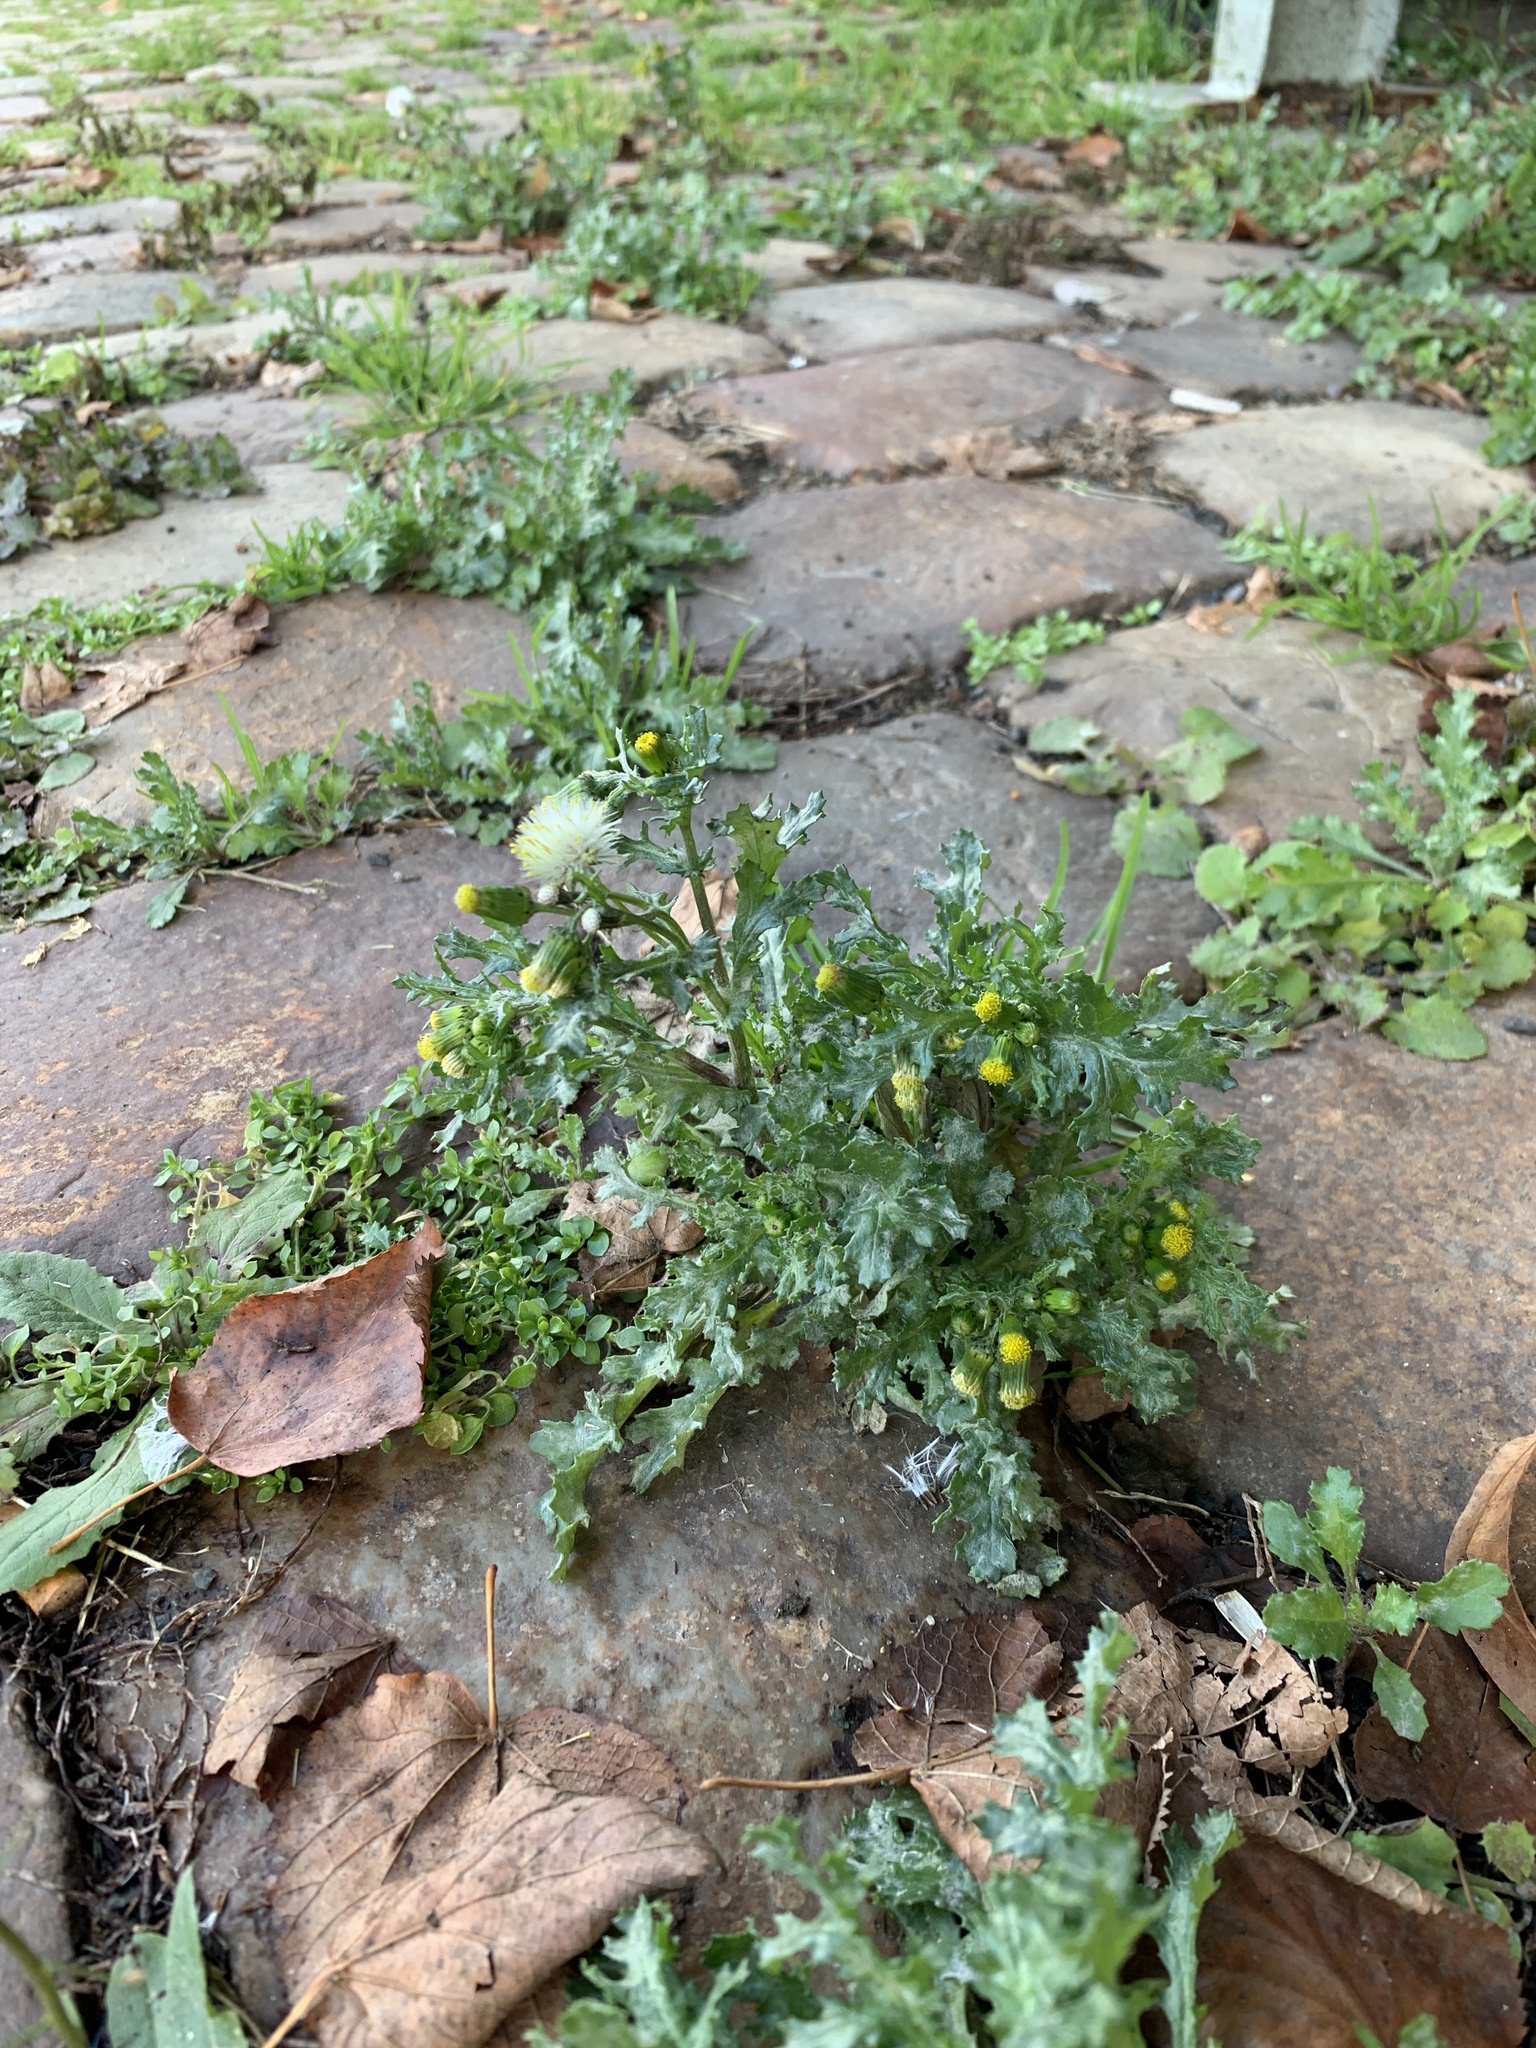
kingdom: Plantae
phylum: Tracheophyta
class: Magnoliopsida
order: Asterales
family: Asteraceae
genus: Senecio
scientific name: Senecio vulgaris
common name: Old-man-in-the-spring
